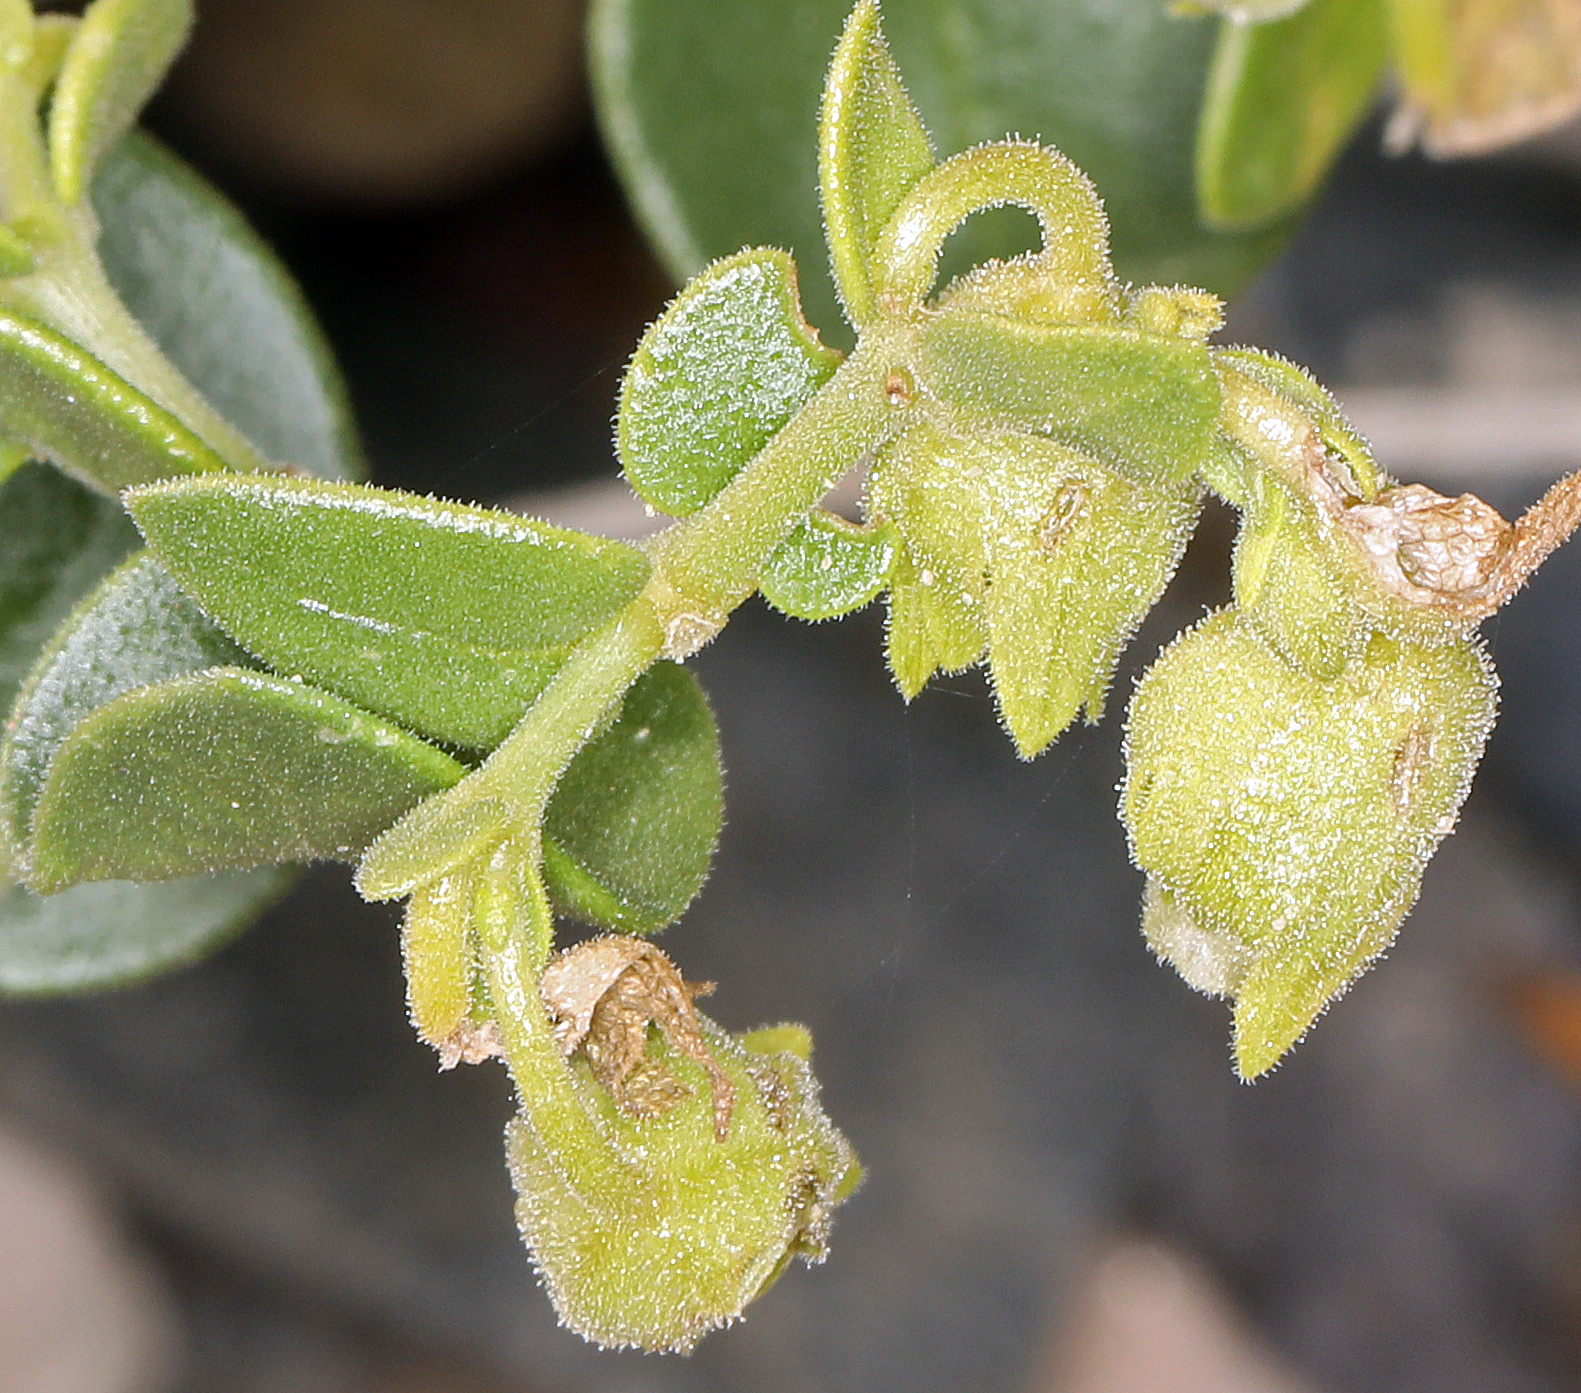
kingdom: Plantae
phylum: Tracheophyta
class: Magnoliopsida
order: Caryophyllales
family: Nyctaginaceae
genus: Mirabilis
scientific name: Mirabilis laevis
